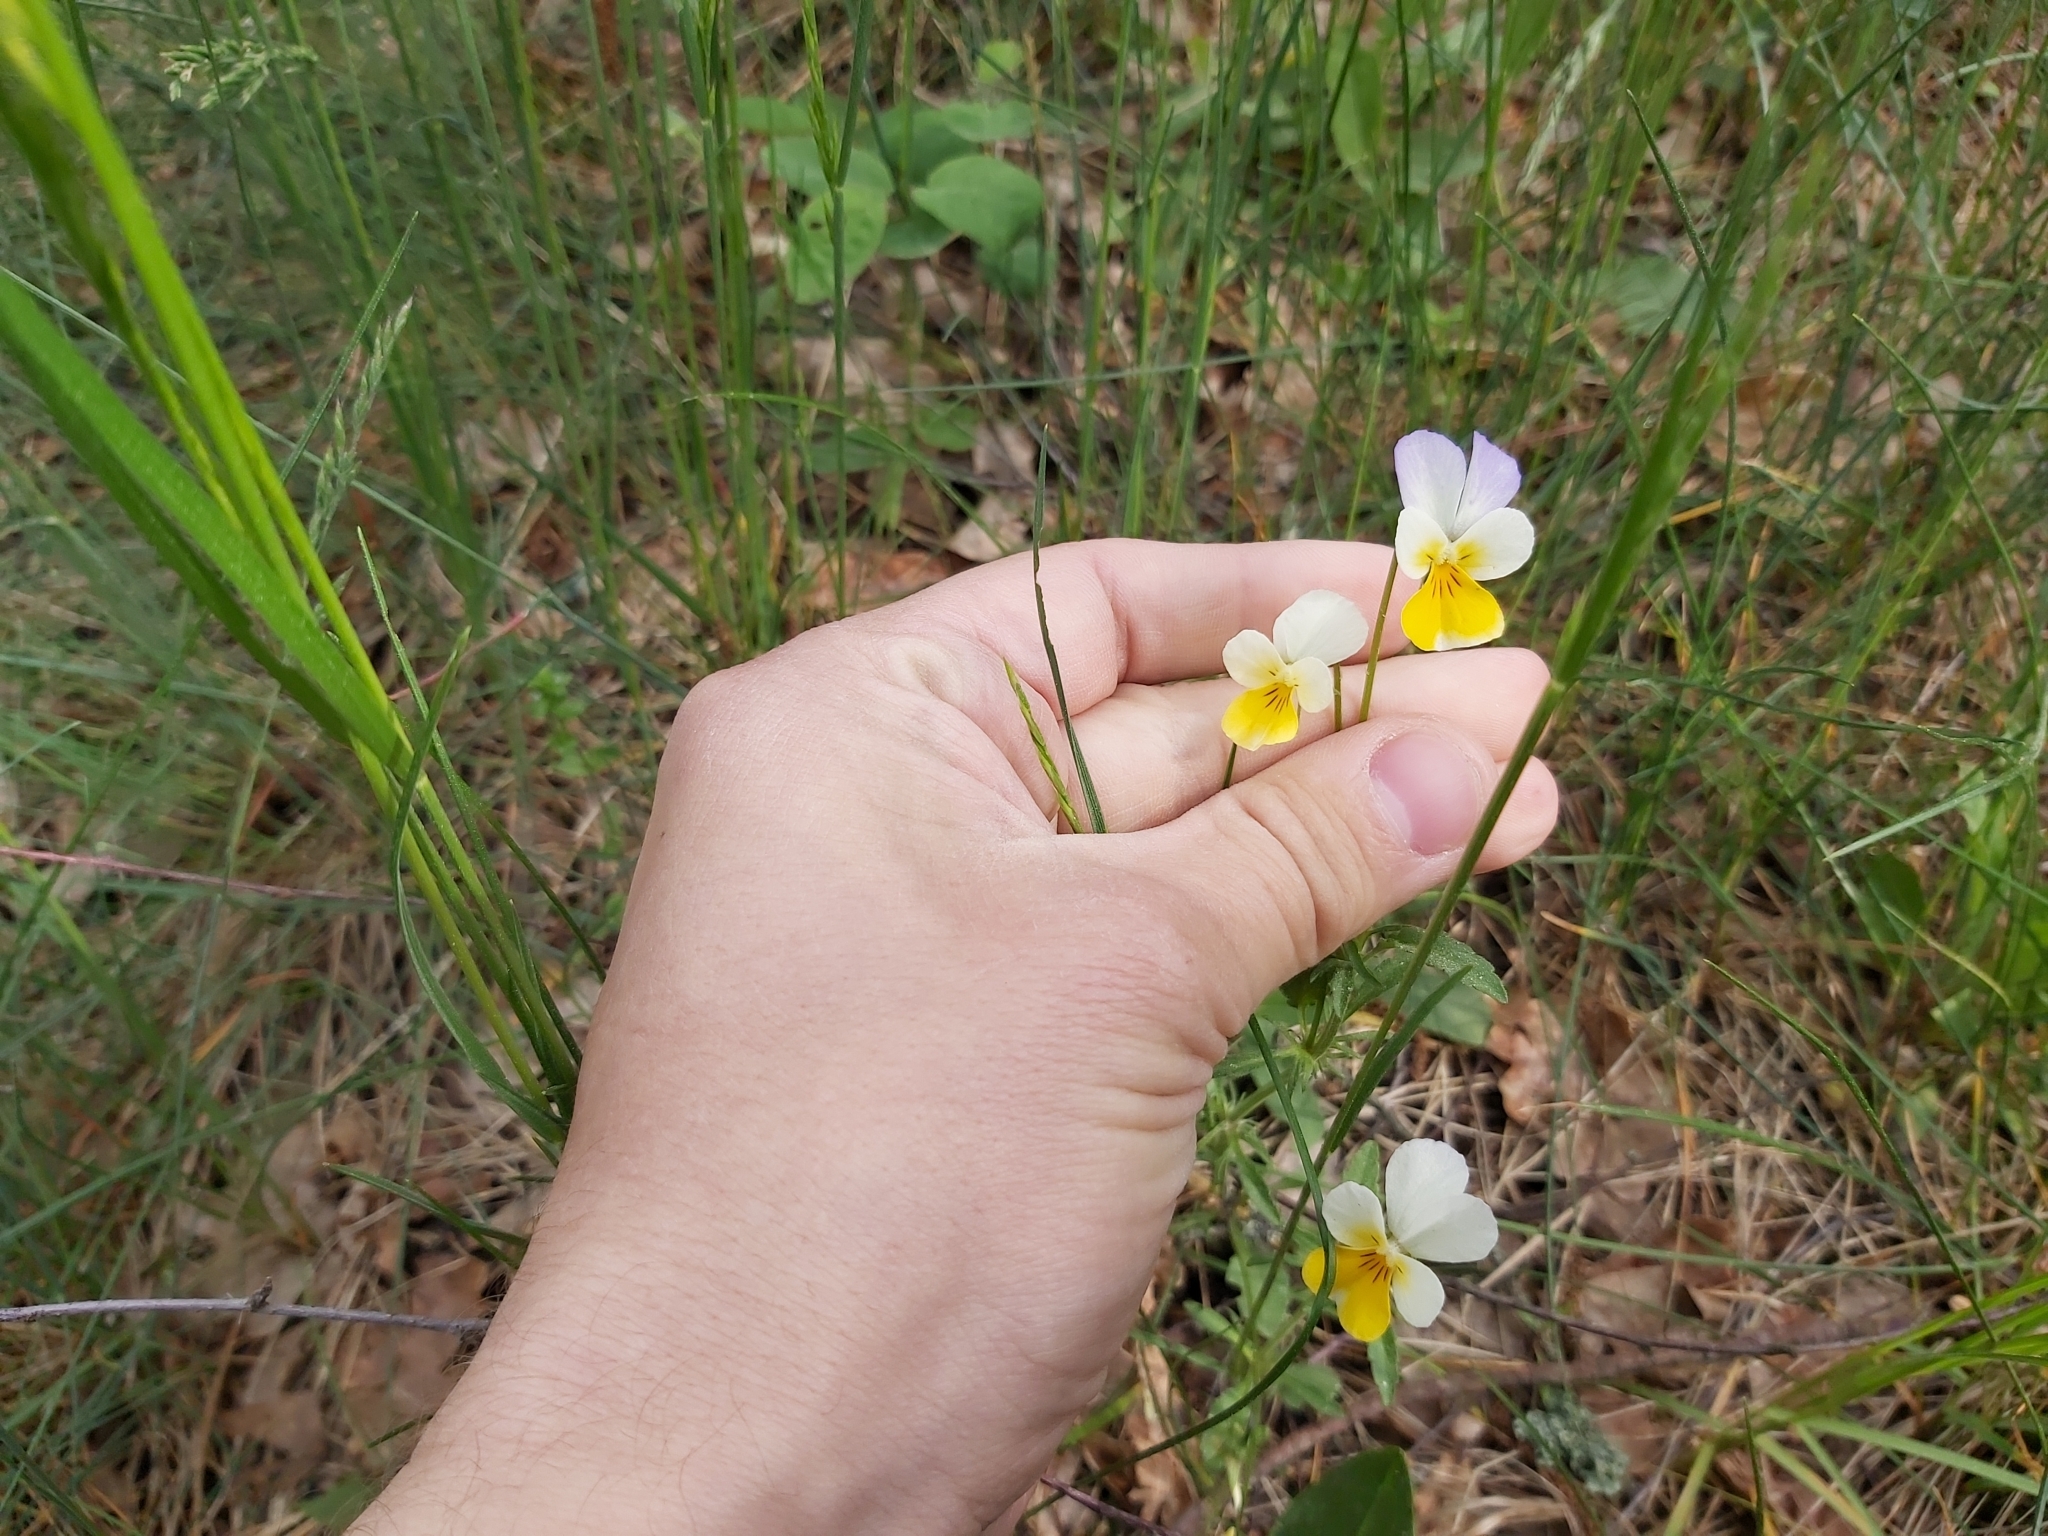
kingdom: Plantae
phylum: Tracheophyta
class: Magnoliopsida
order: Malpighiales
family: Violaceae
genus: Viola
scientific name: Viola tricolor
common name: Pansy
